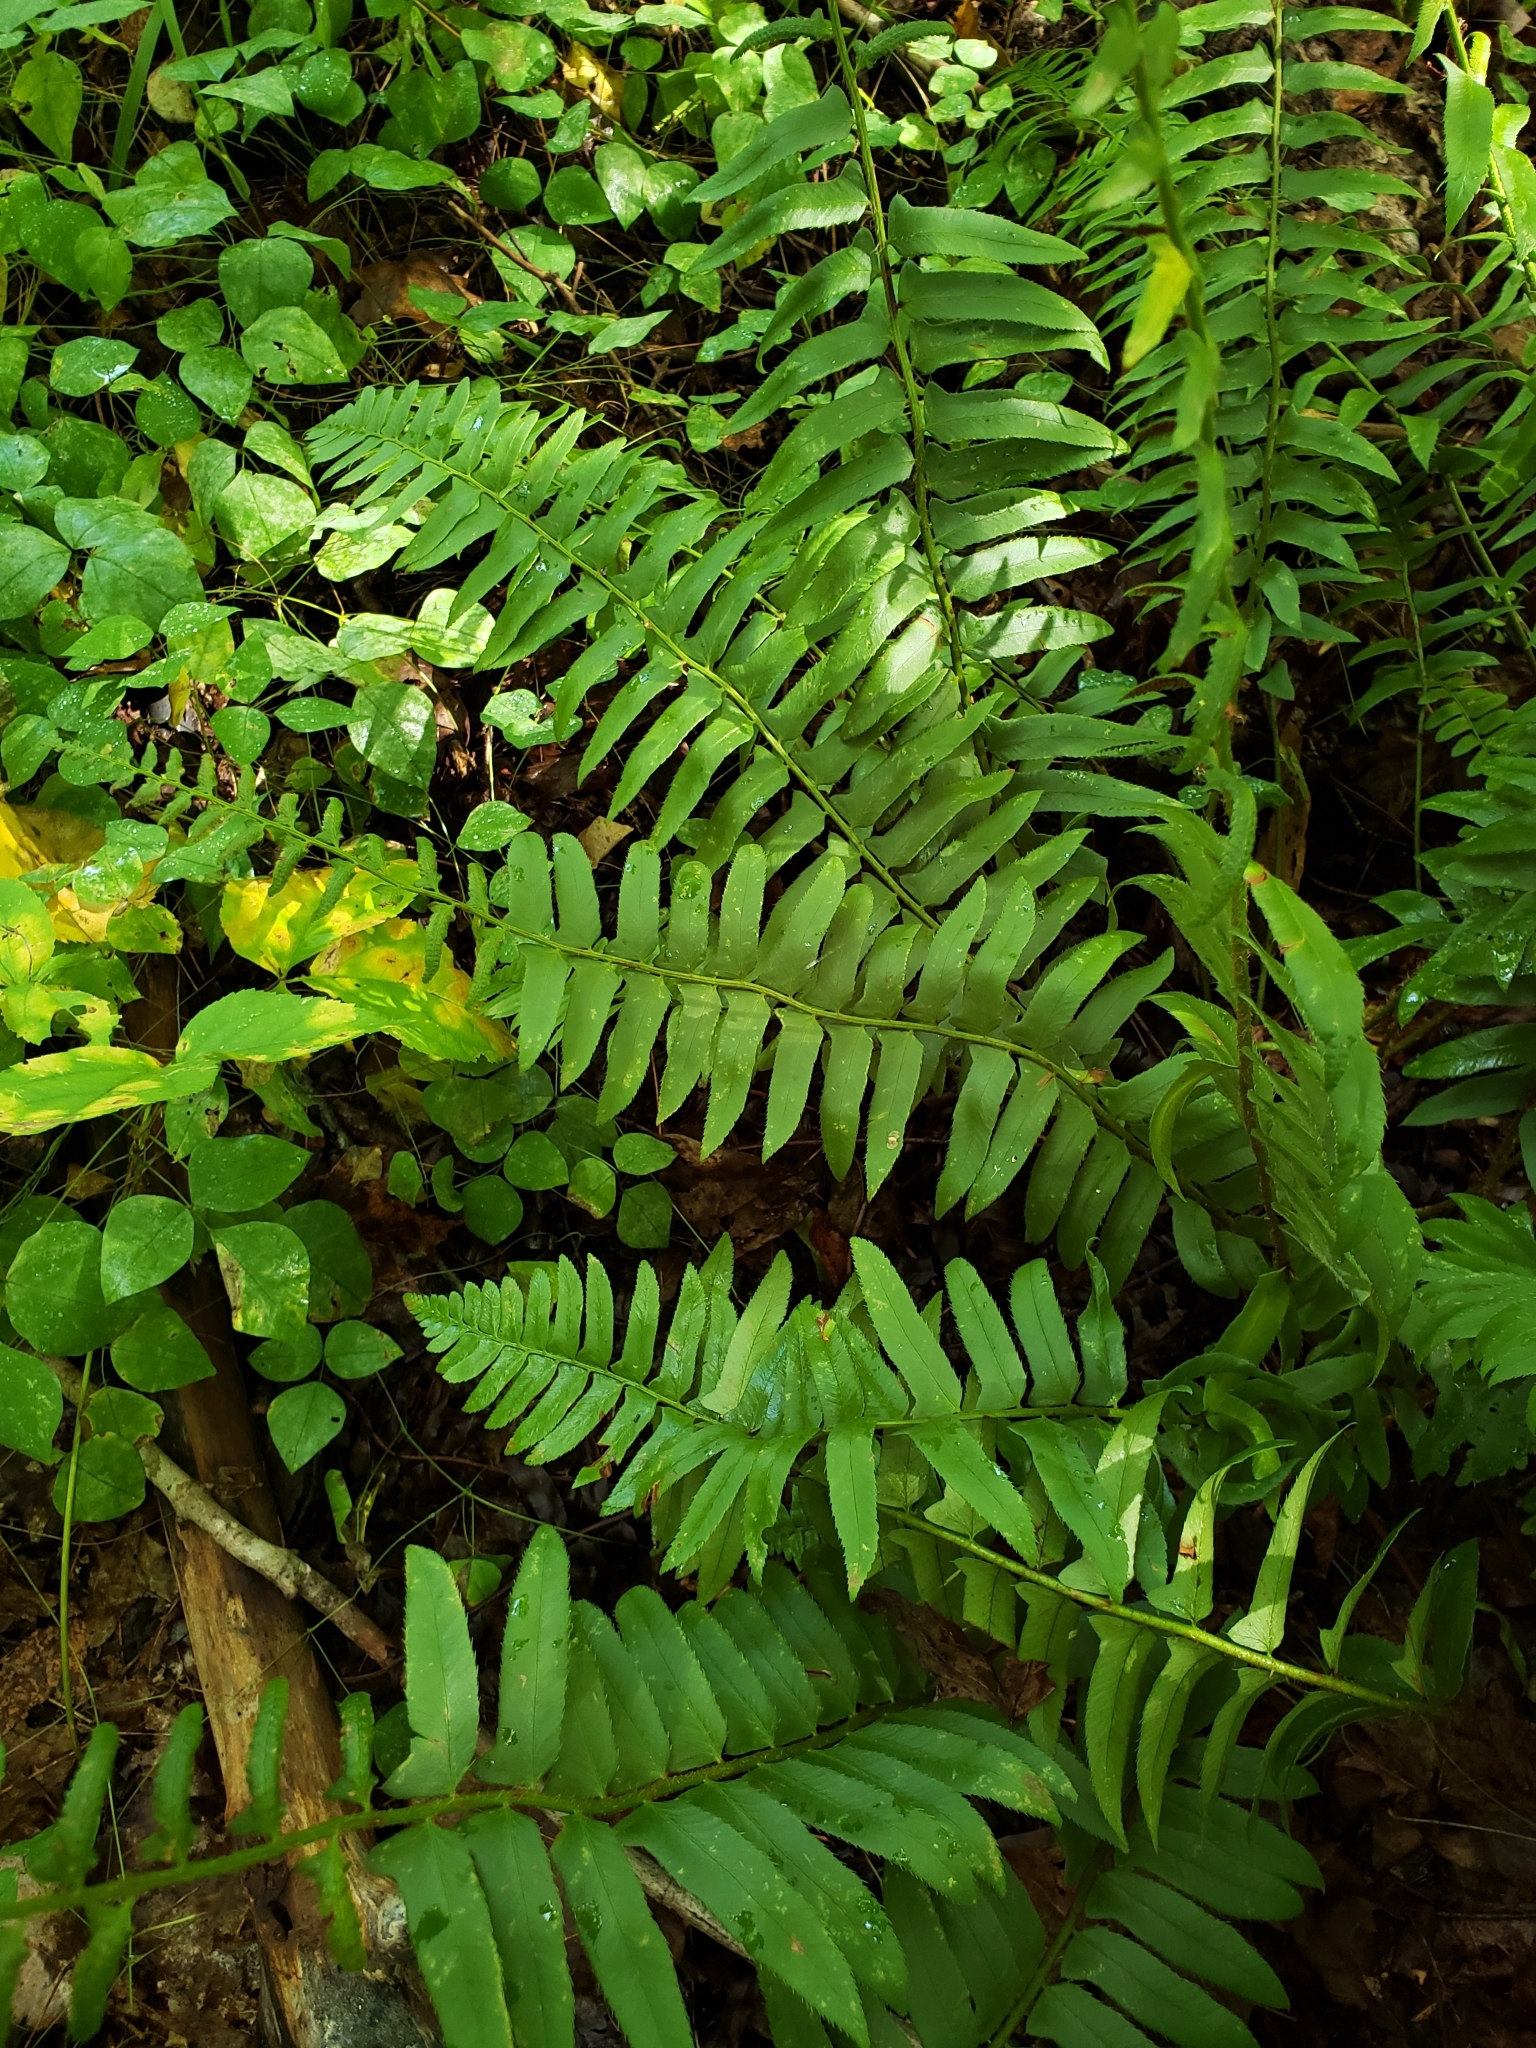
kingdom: Plantae
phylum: Tracheophyta
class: Polypodiopsida
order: Polypodiales
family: Dryopteridaceae
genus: Polystichum
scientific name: Polystichum acrostichoides
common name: Christmas fern
